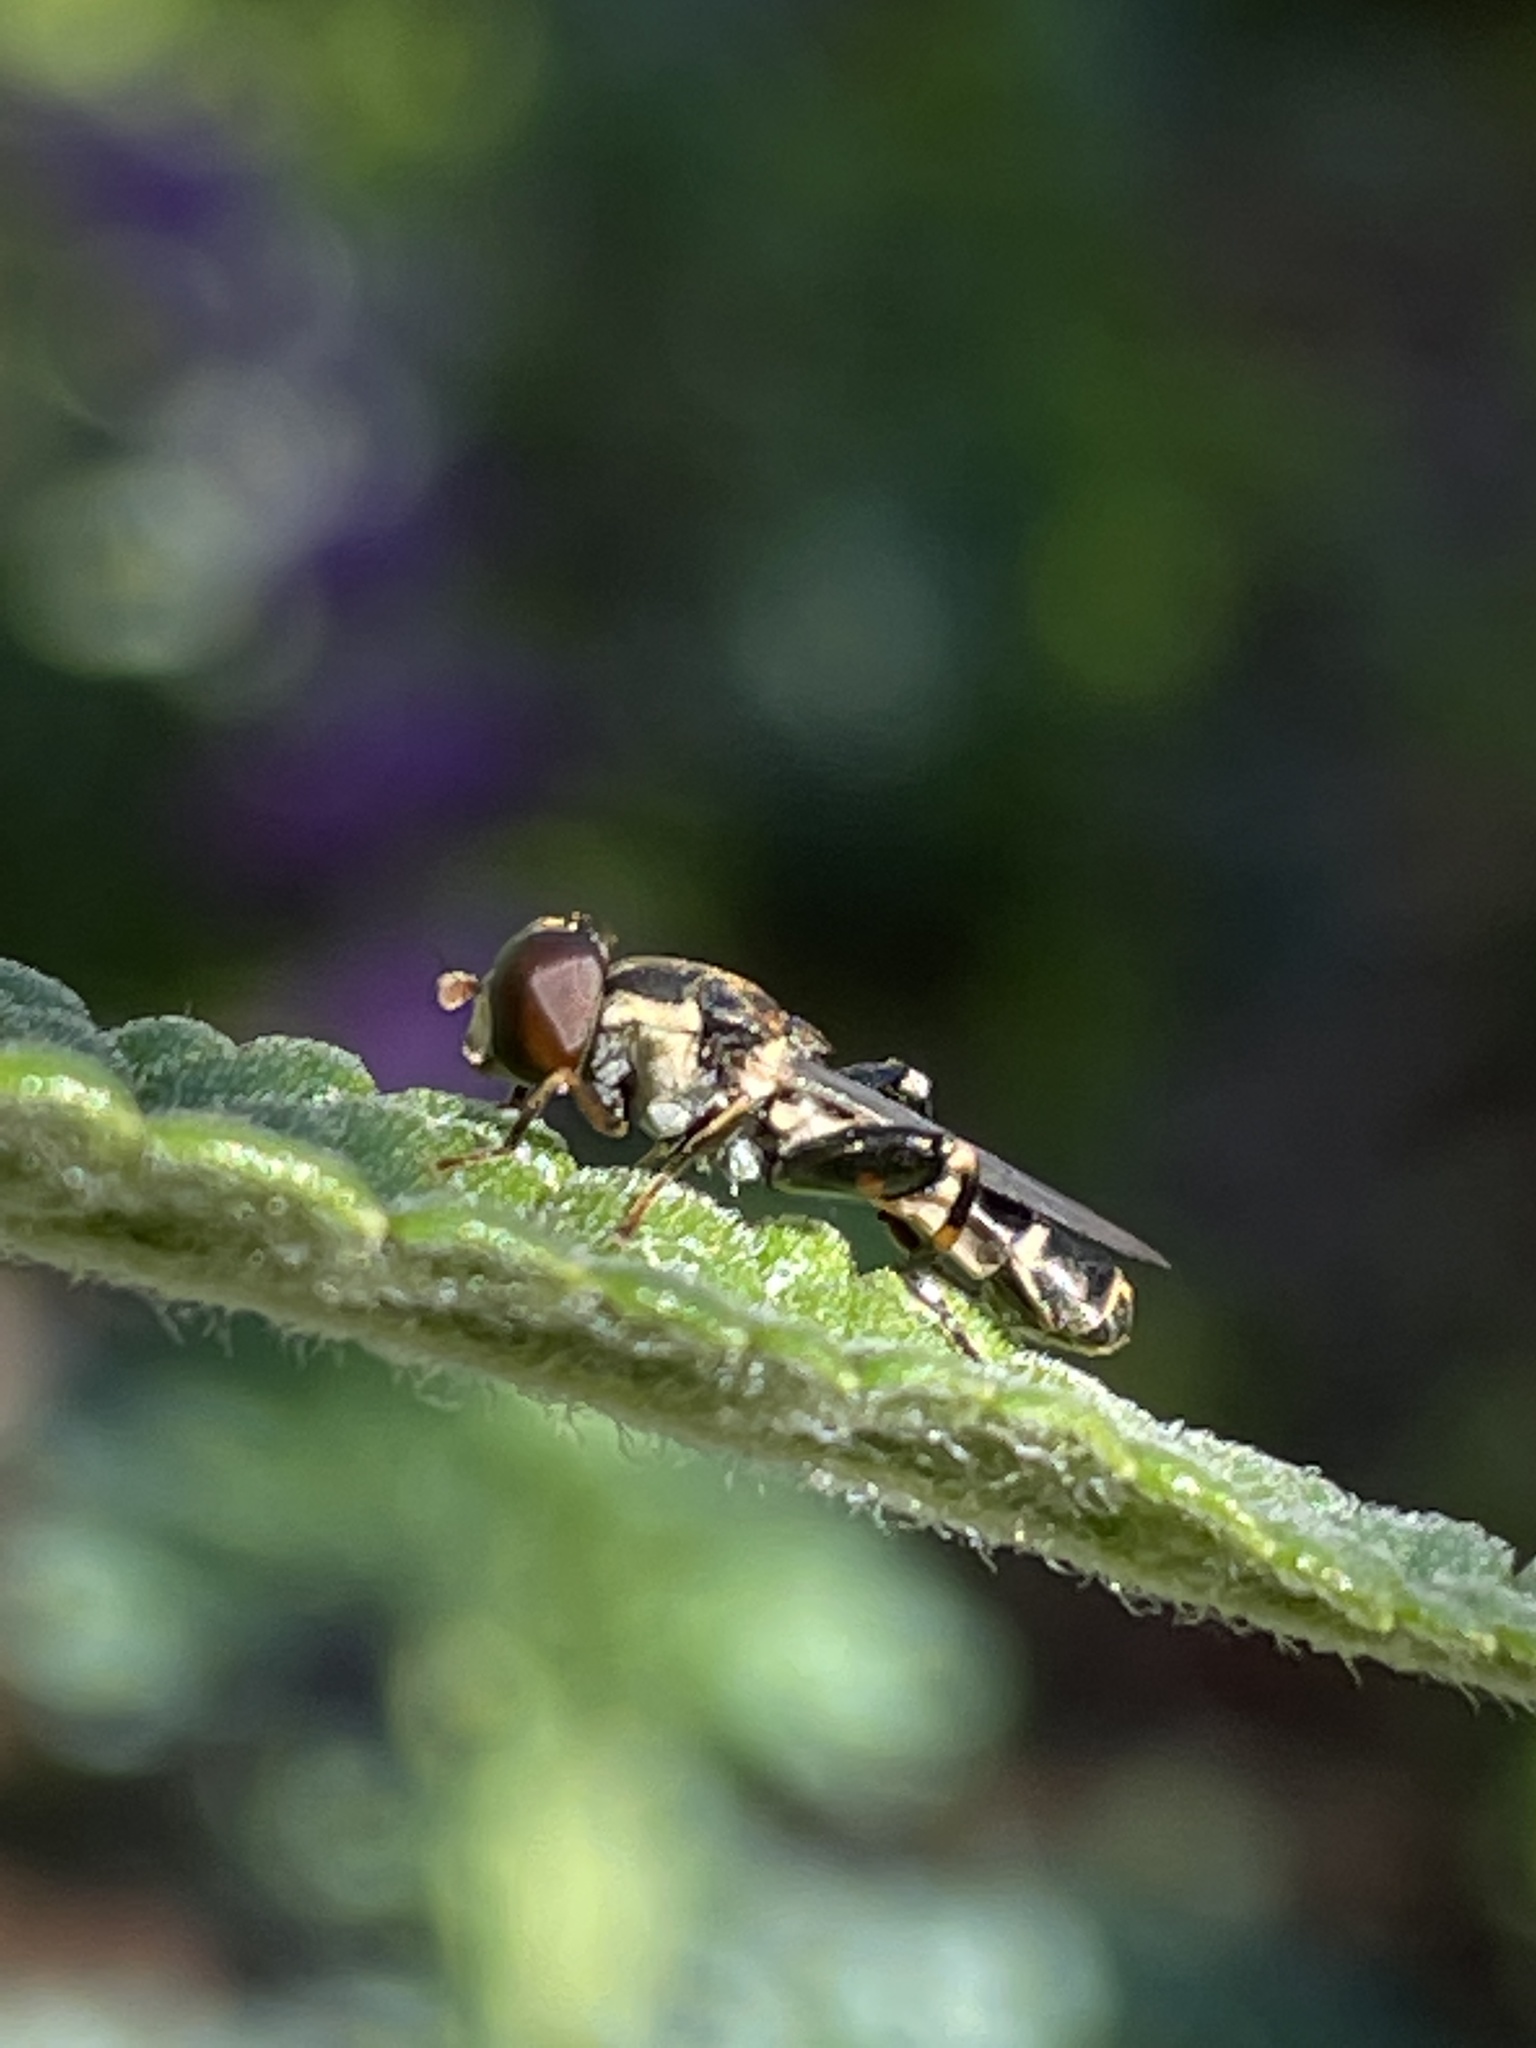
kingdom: Animalia
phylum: Arthropoda
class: Insecta
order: Diptera
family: Syrphidae
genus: Syritta
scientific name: Syritta pipiens
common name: Hover fly
